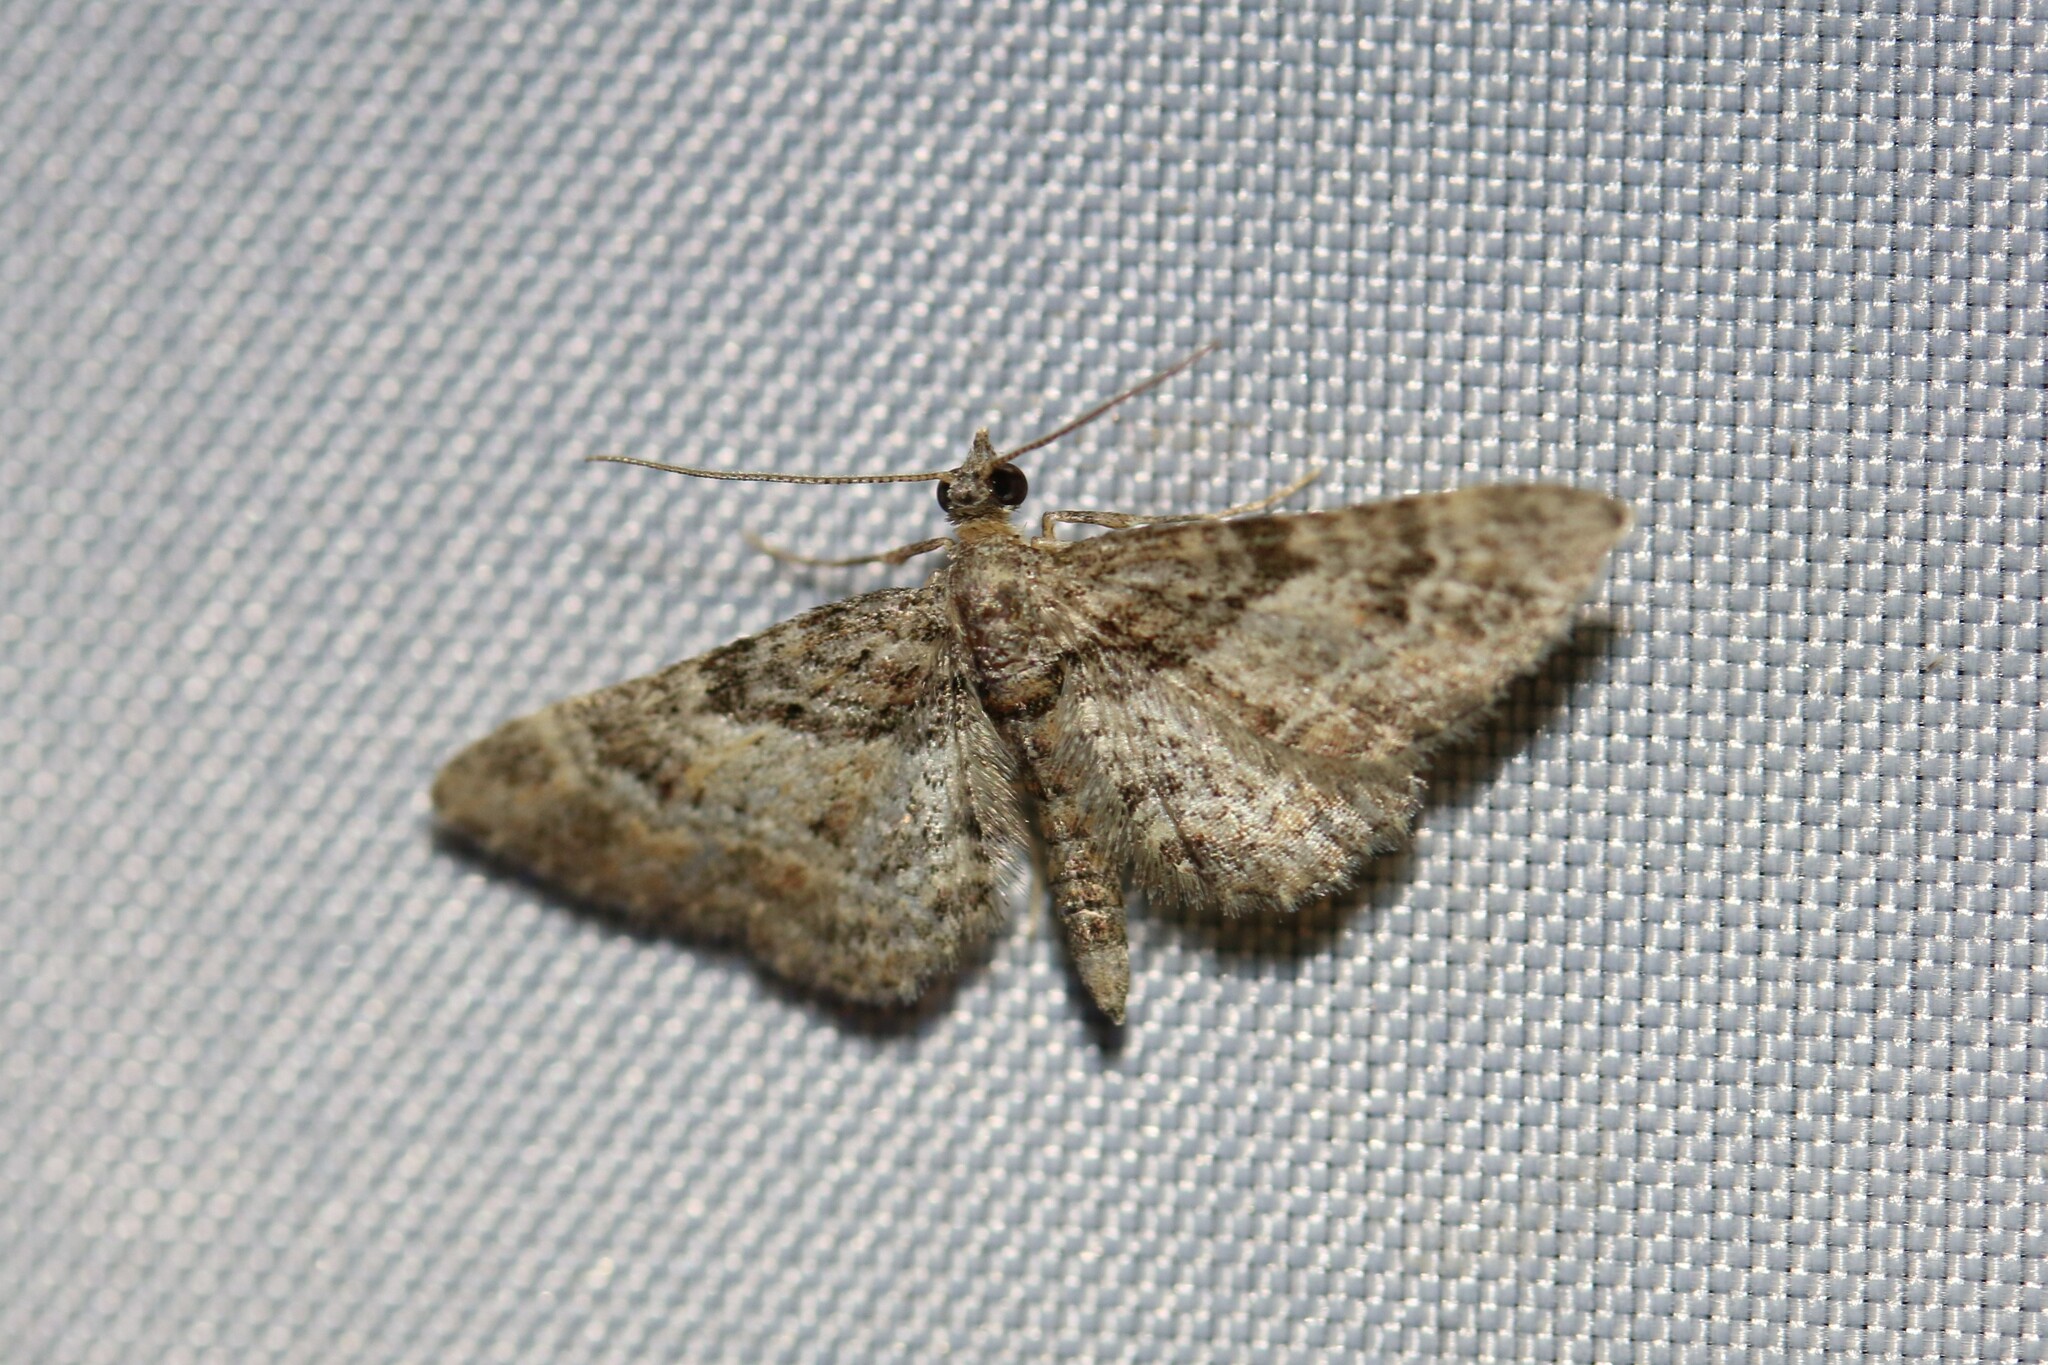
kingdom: Animalia
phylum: Arthropoda
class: Insecta
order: Lepidoptera
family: Geometridae
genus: Gymnoscelis
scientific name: Gymnoscelis rufifasciata
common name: Double-striped pug
